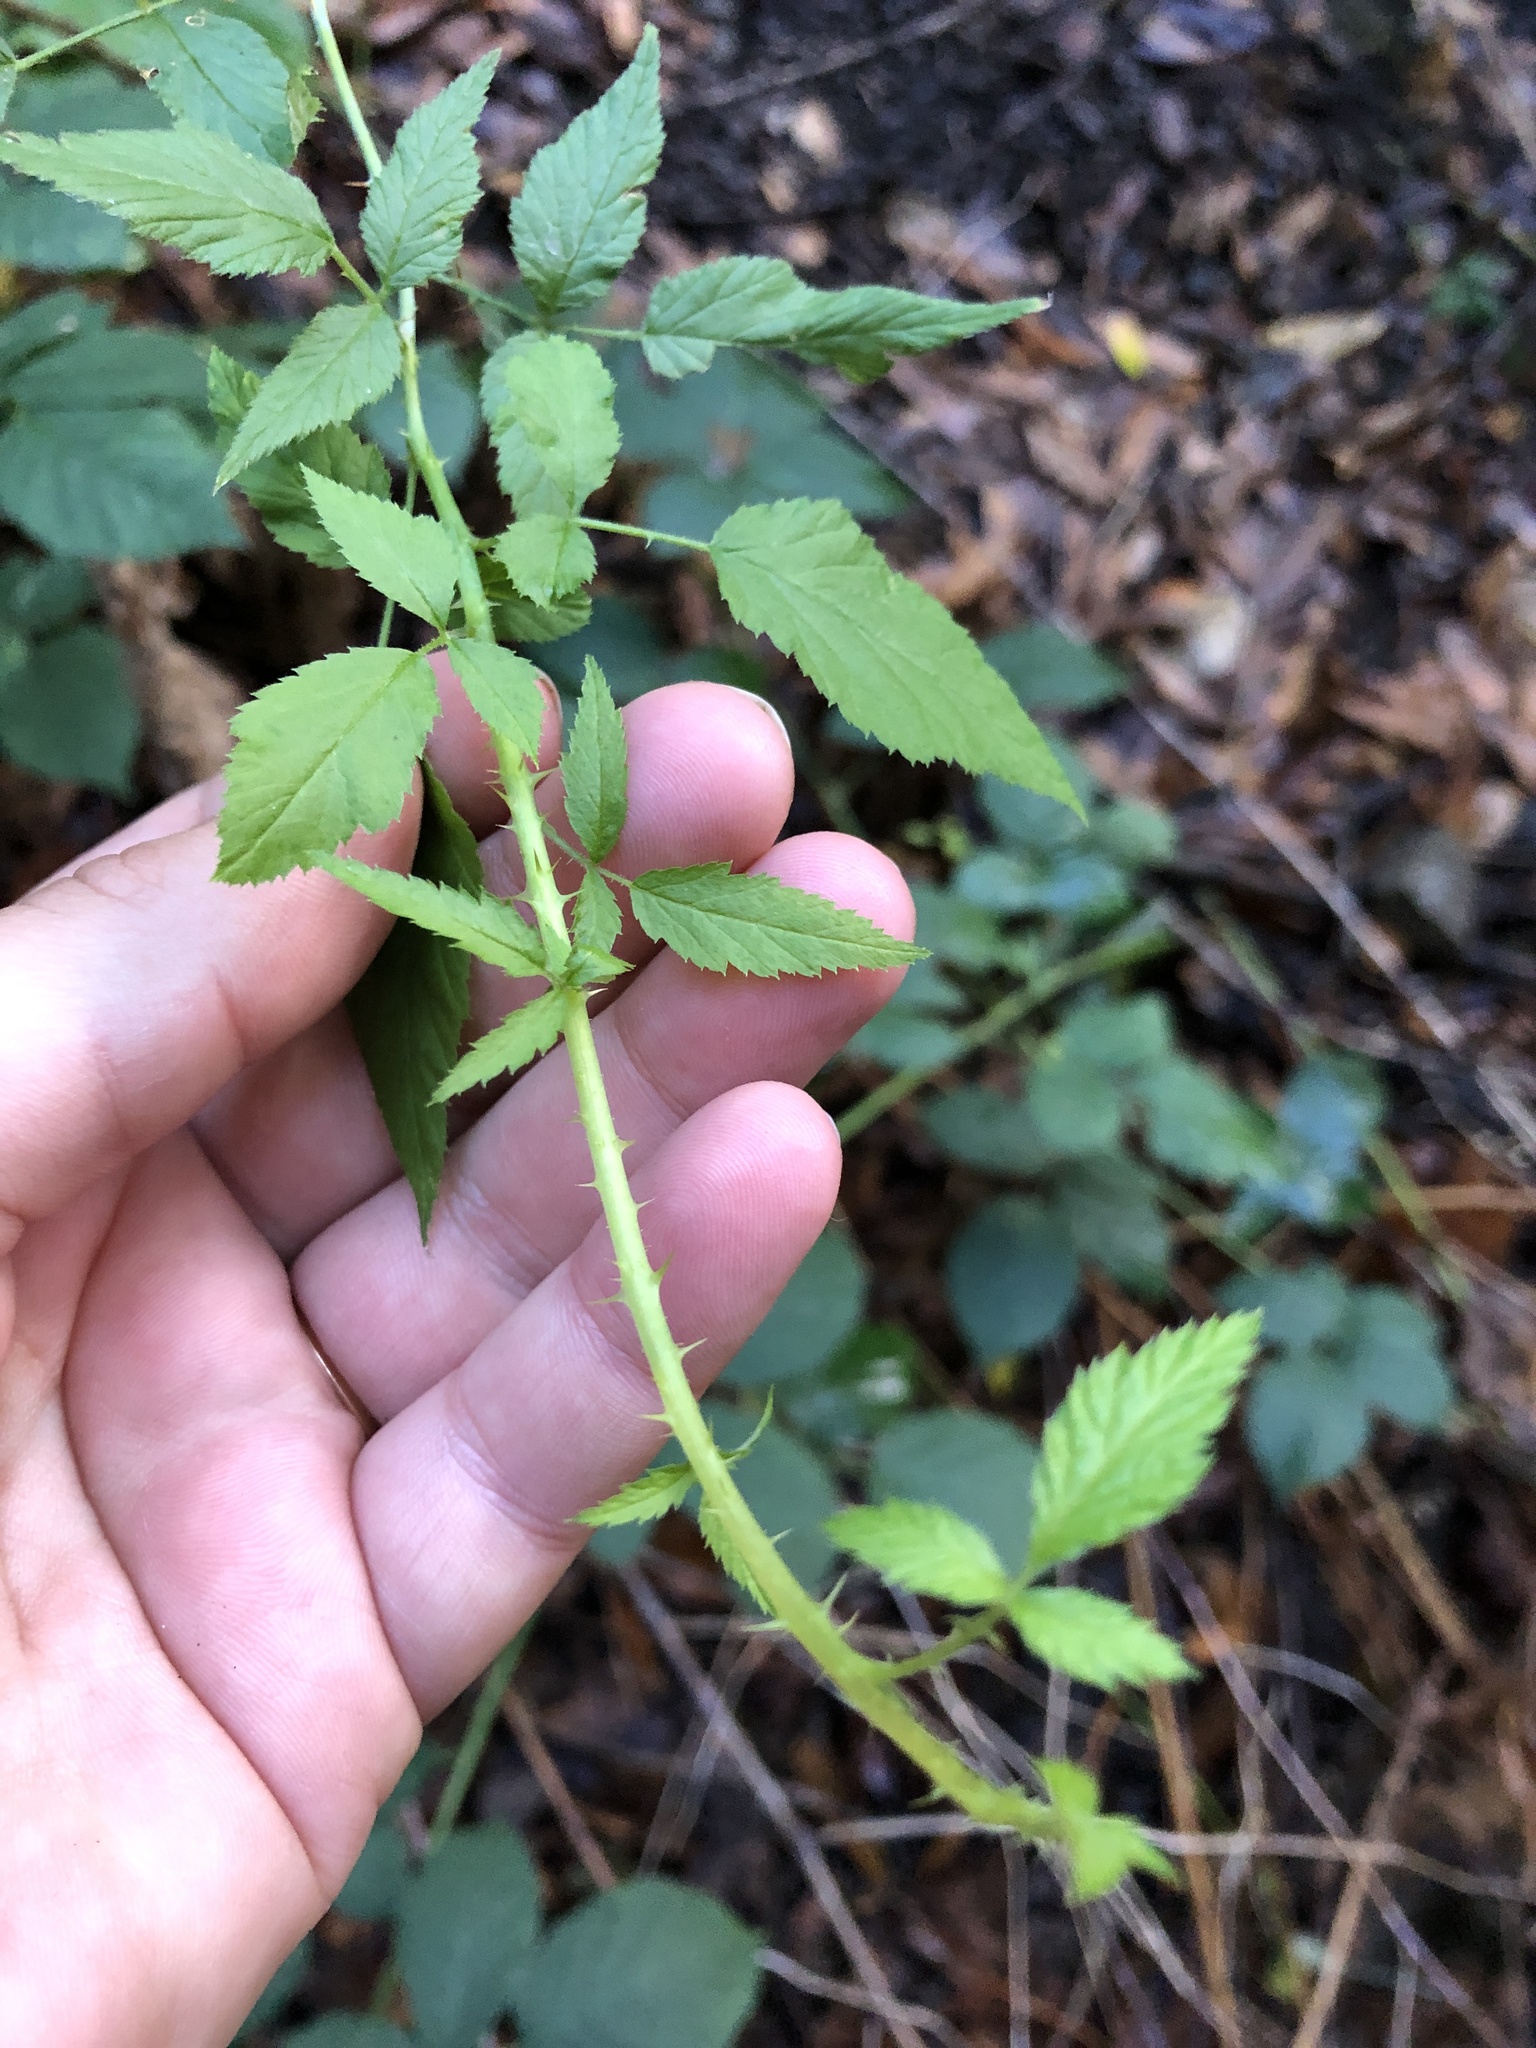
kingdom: Plantae
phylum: Tracheophyta
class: Magnoliopsida
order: Rosales
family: Rosaceae
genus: Rubus
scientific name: Rubus leucodermis
